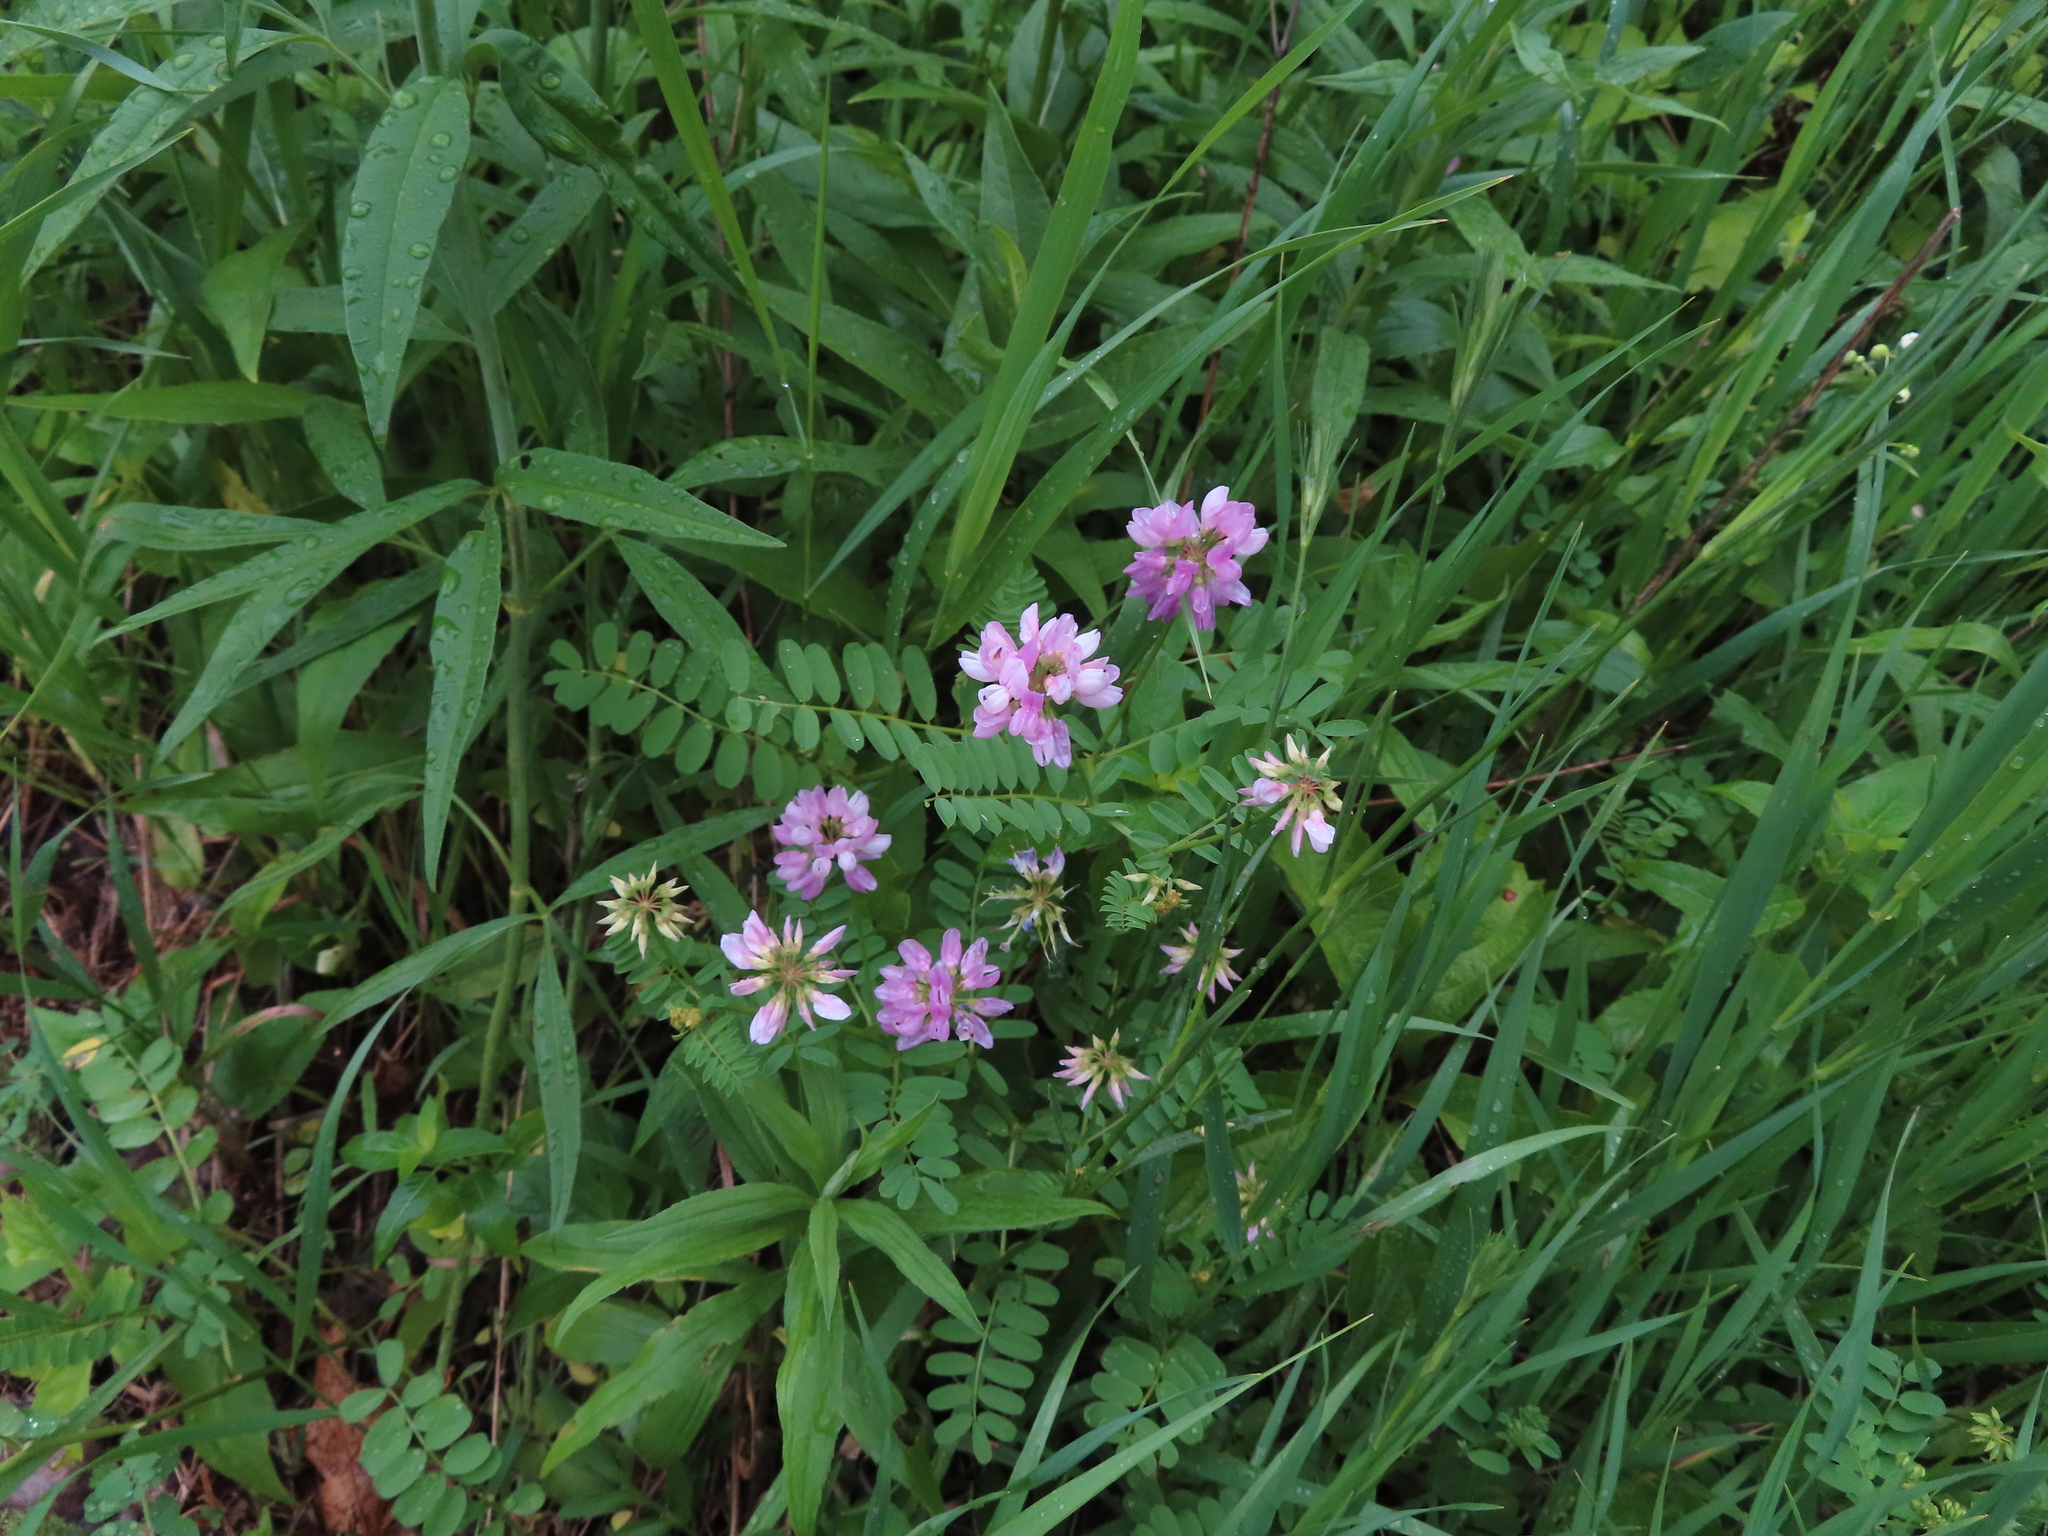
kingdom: Plantae
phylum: Tracheophyta
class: Magnoliopsida
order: Fabales
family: Fabaceae
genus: Coronilla
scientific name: Coronilla varia
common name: Crownvetch
